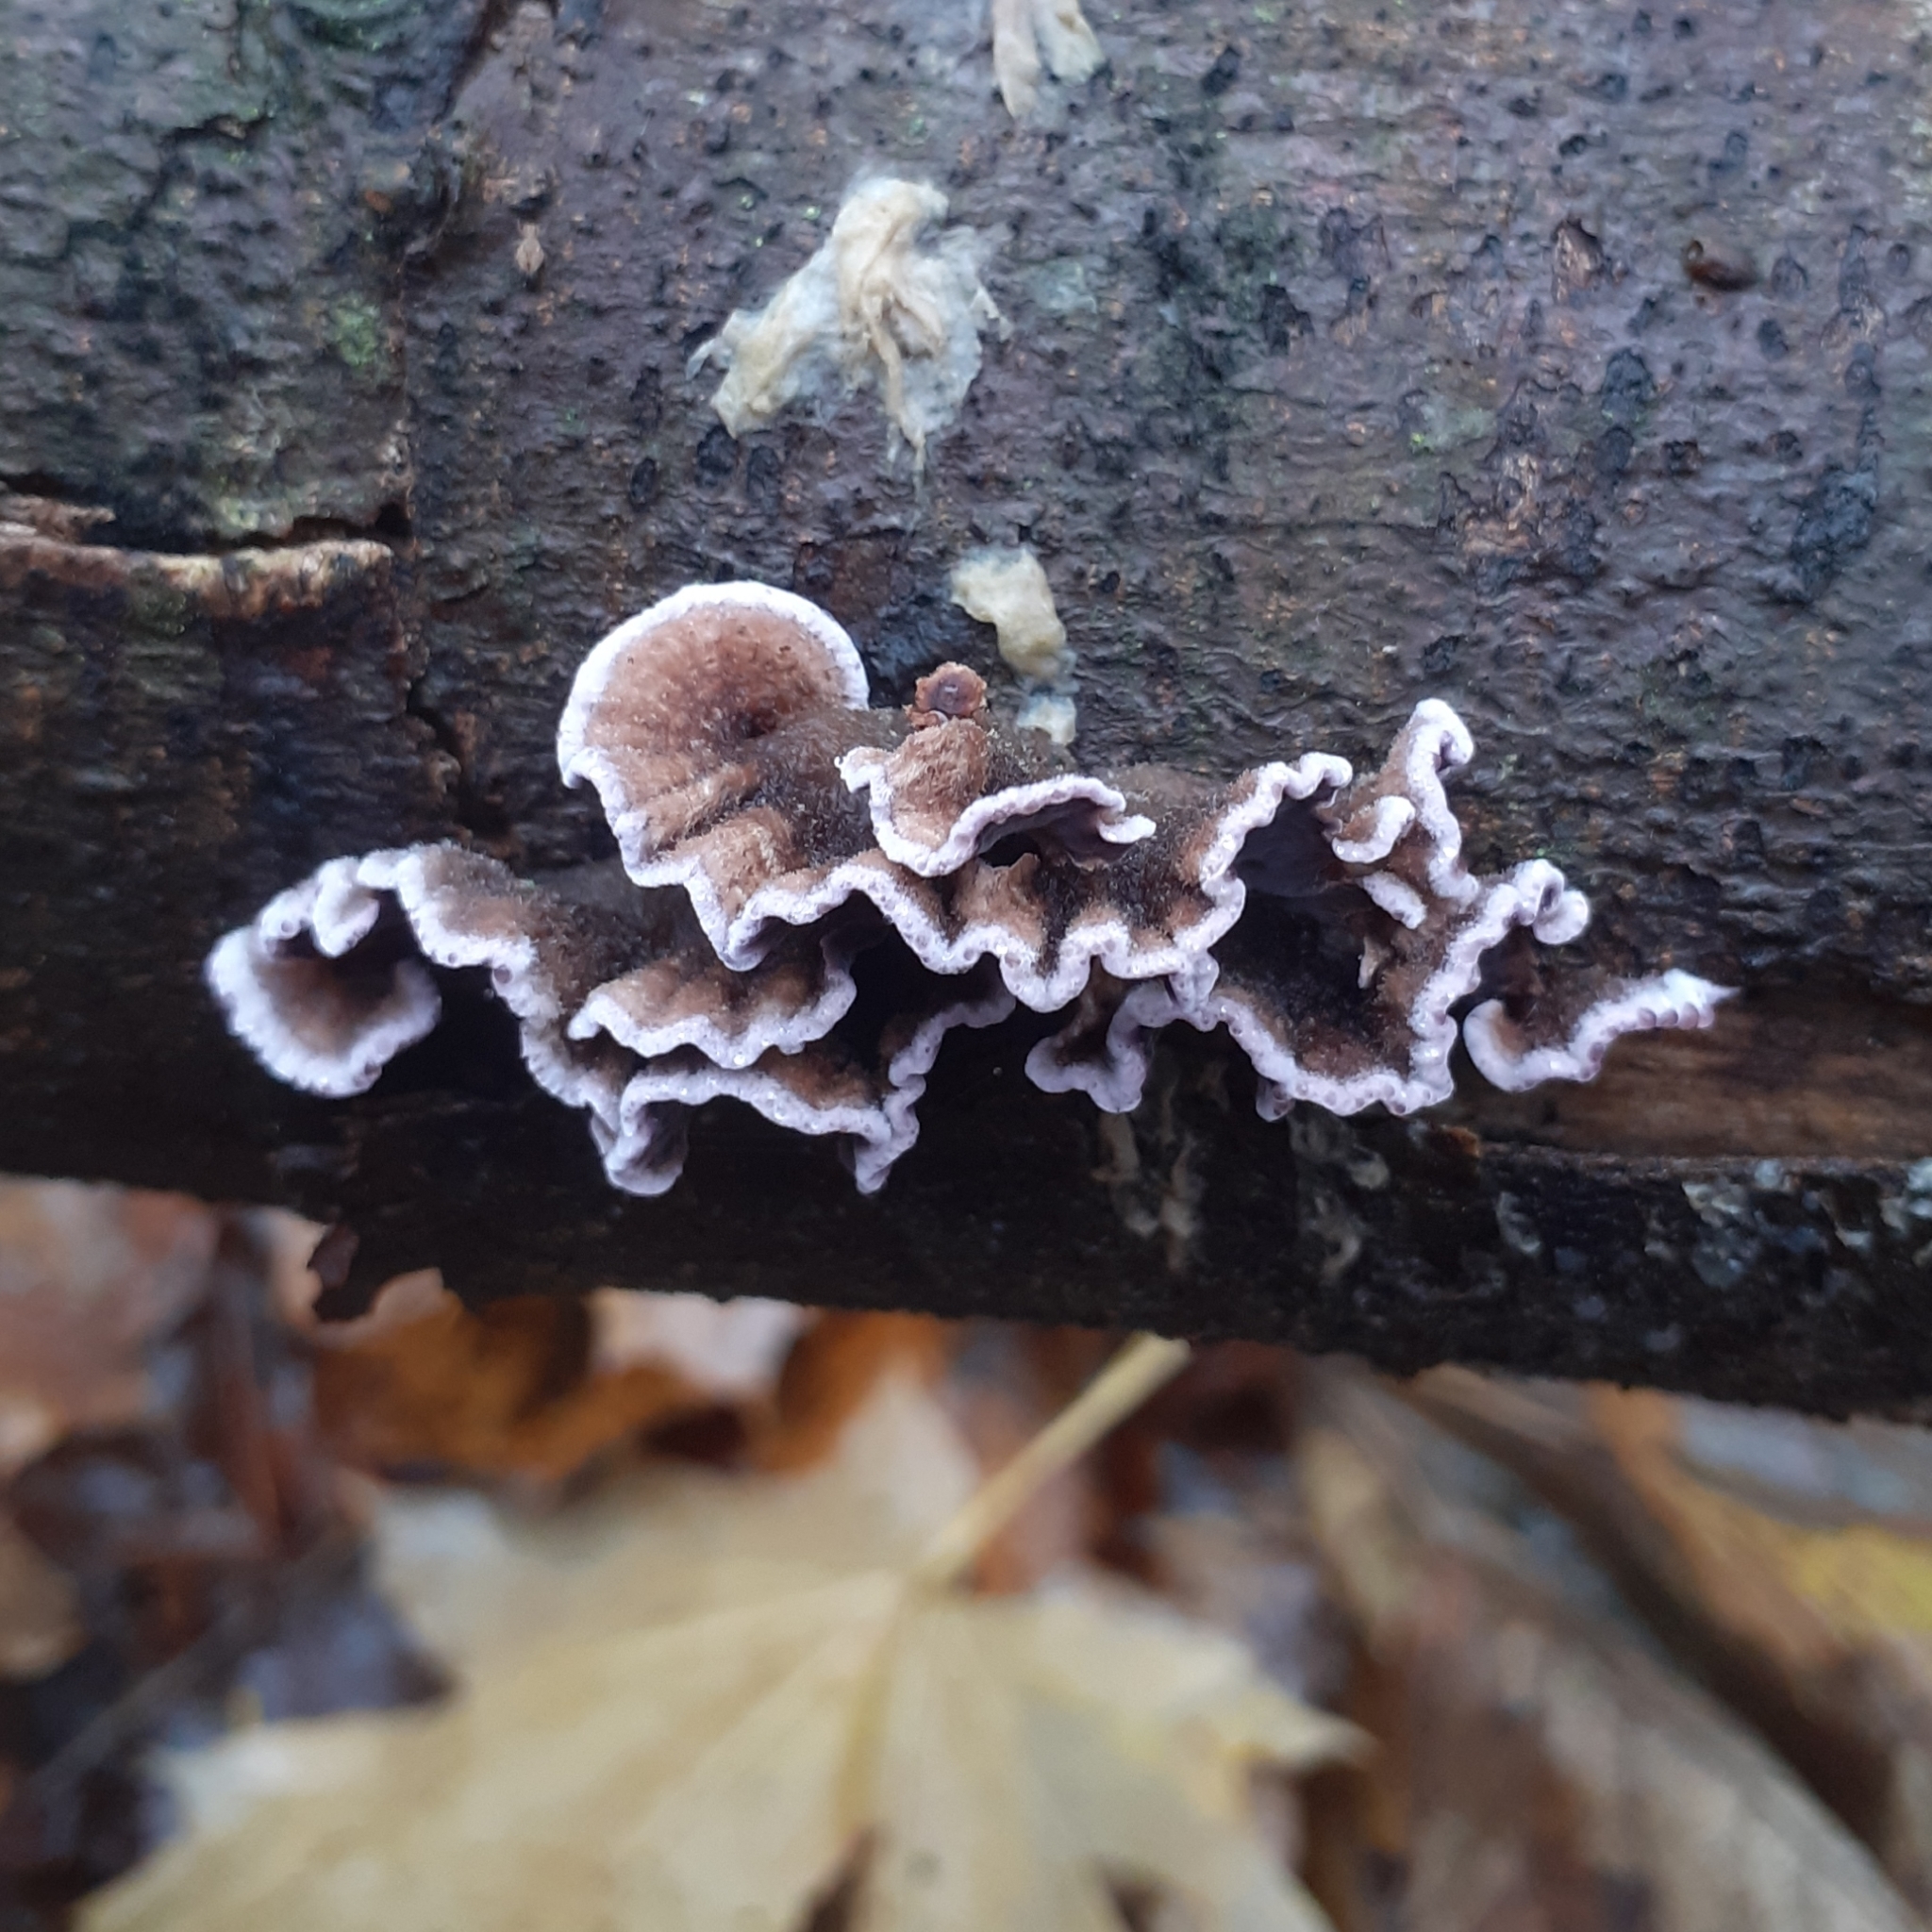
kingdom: Fungi
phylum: Basidiomycota
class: Agaricomycetes
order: Agaricales
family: Cyphellaceae
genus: Chondrostereum
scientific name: Chondrostereum purpureum
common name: Silver leaf disease
